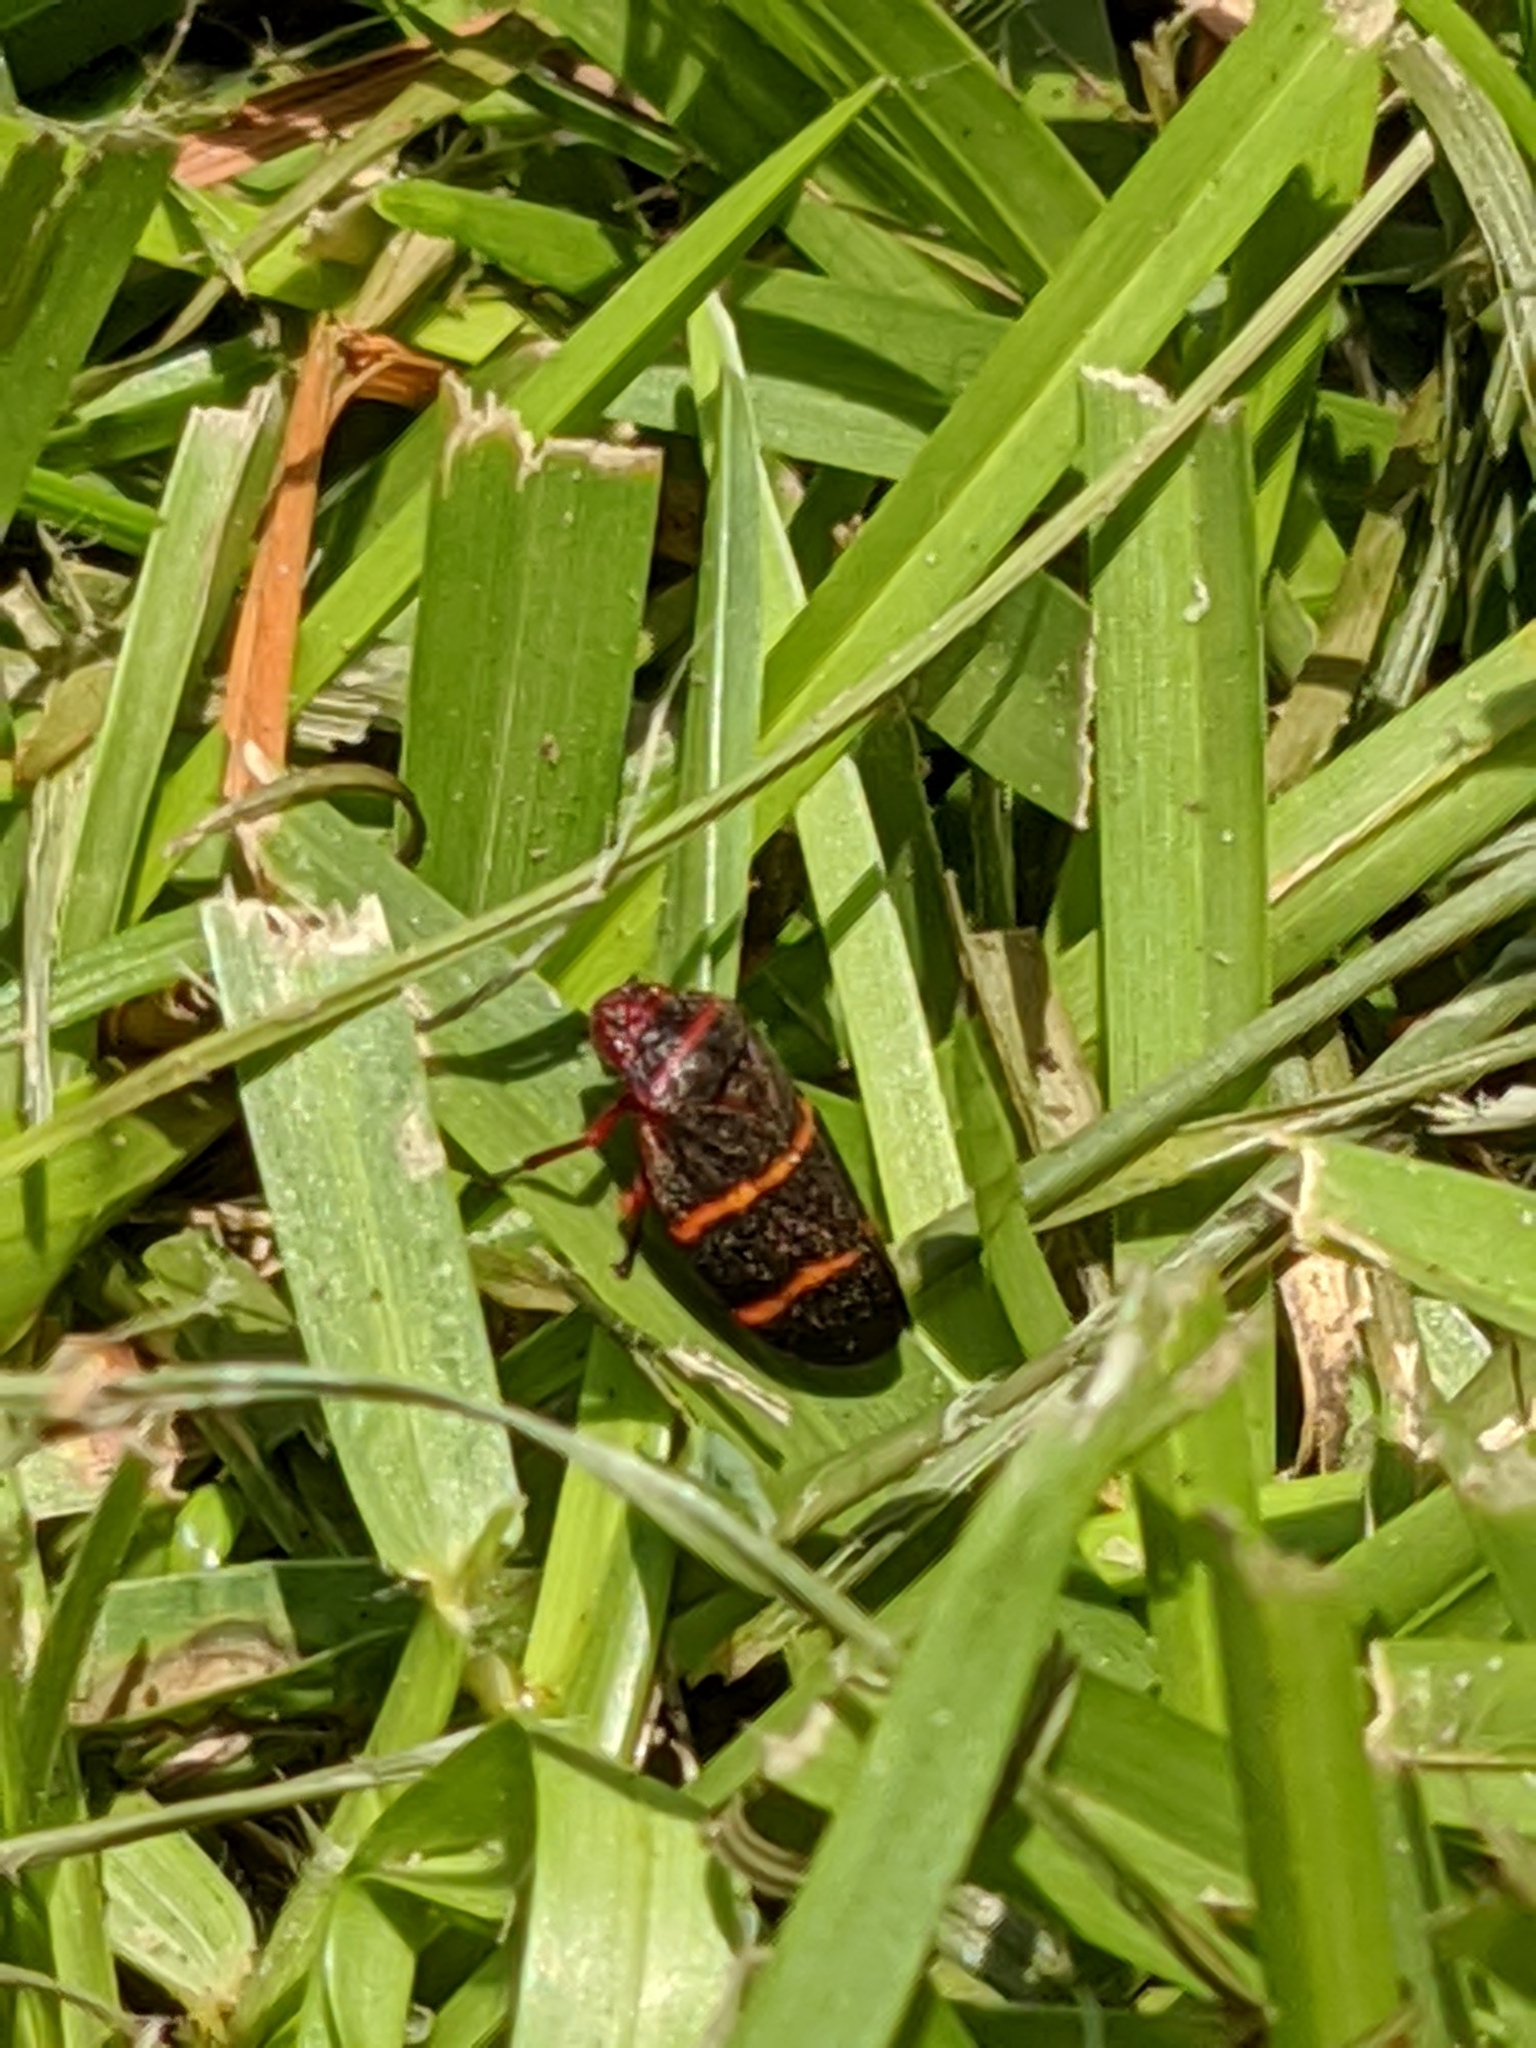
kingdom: Animalia
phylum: Arthropoda
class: Insecta
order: Hemiptera
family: Cercopidae
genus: Prosapia
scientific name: Prosapia bicincta
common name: Twolined spittlebug
